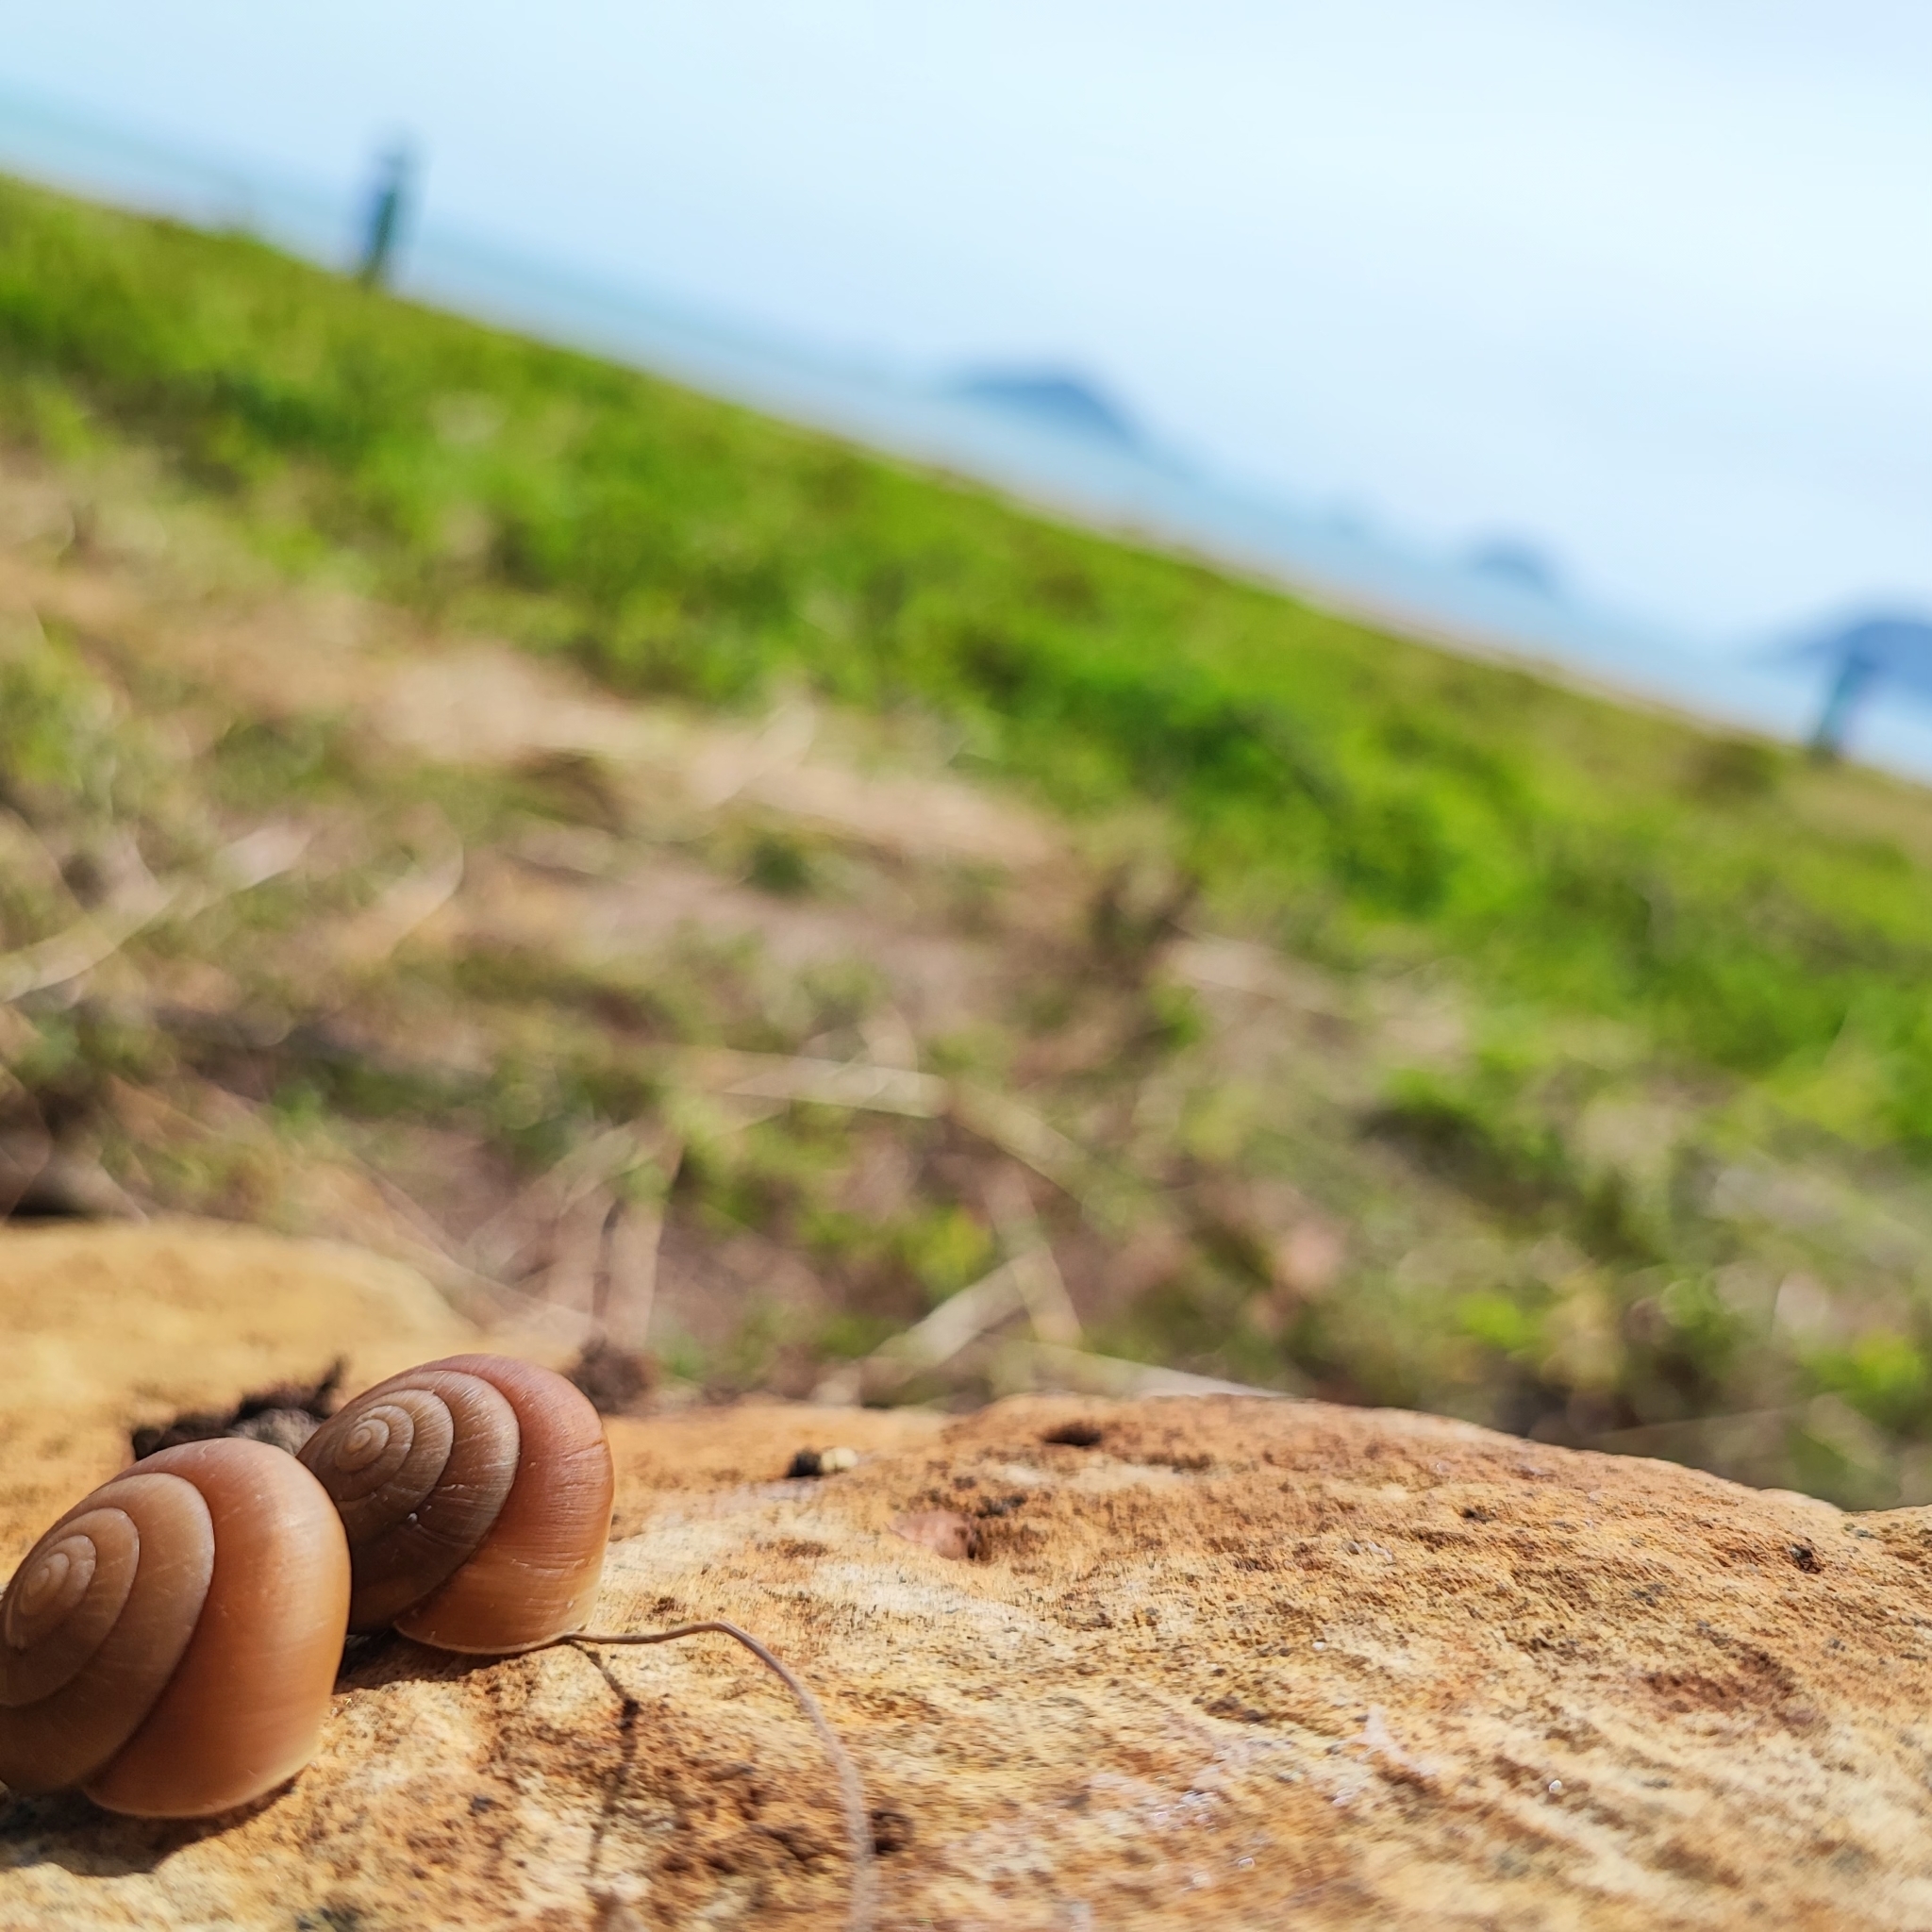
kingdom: Animalia
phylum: Mollusca
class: Gastropoda
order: Stylommatophora
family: Dyakiidae
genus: Quantula
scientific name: Quantula striata
